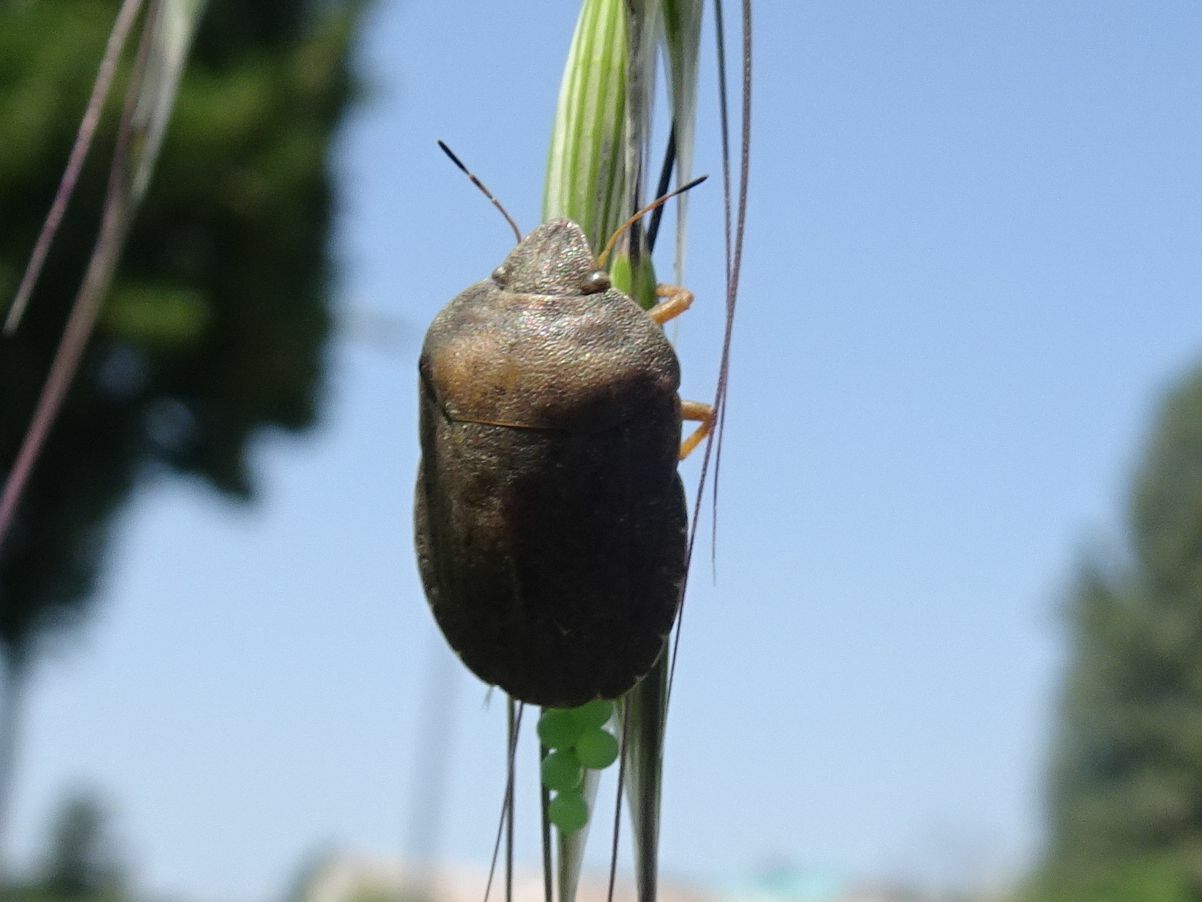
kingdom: Animalia
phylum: Arthropoda
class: Insecta
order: Hemiptera
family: Scutelleridae
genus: Eurygaster
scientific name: Eurygaster austriaca
